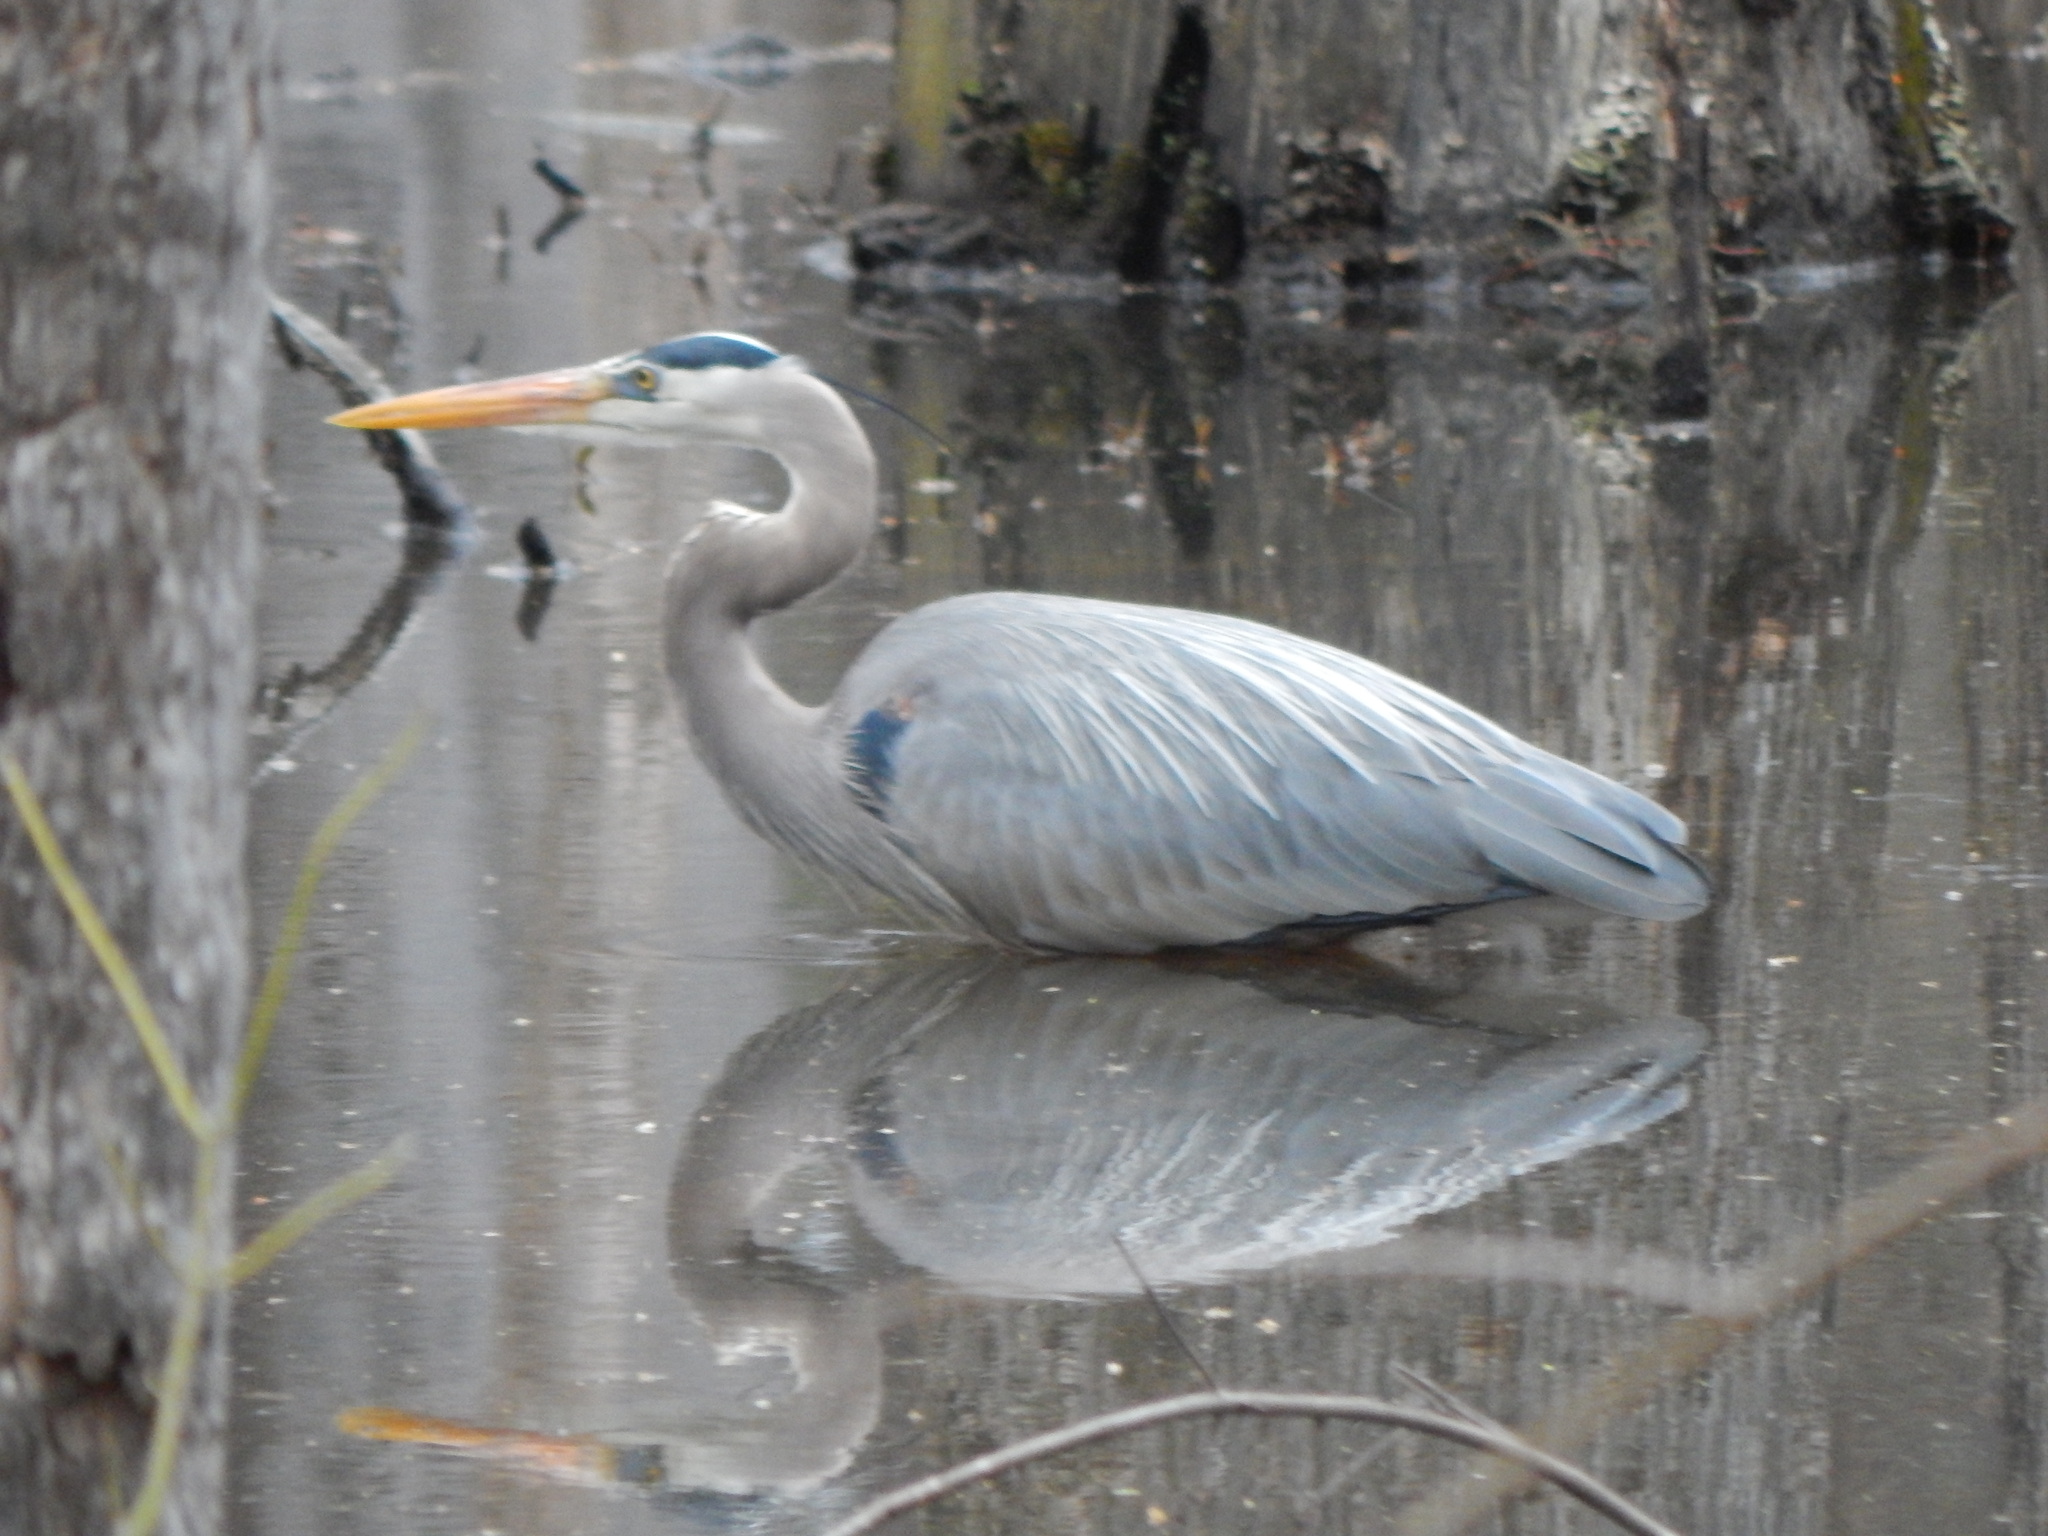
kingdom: Animalia
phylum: Chordata
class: Aves
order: Pelecaniformes
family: Ardeidae
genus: Ardea
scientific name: Ardea herodias
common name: Great blue heron
